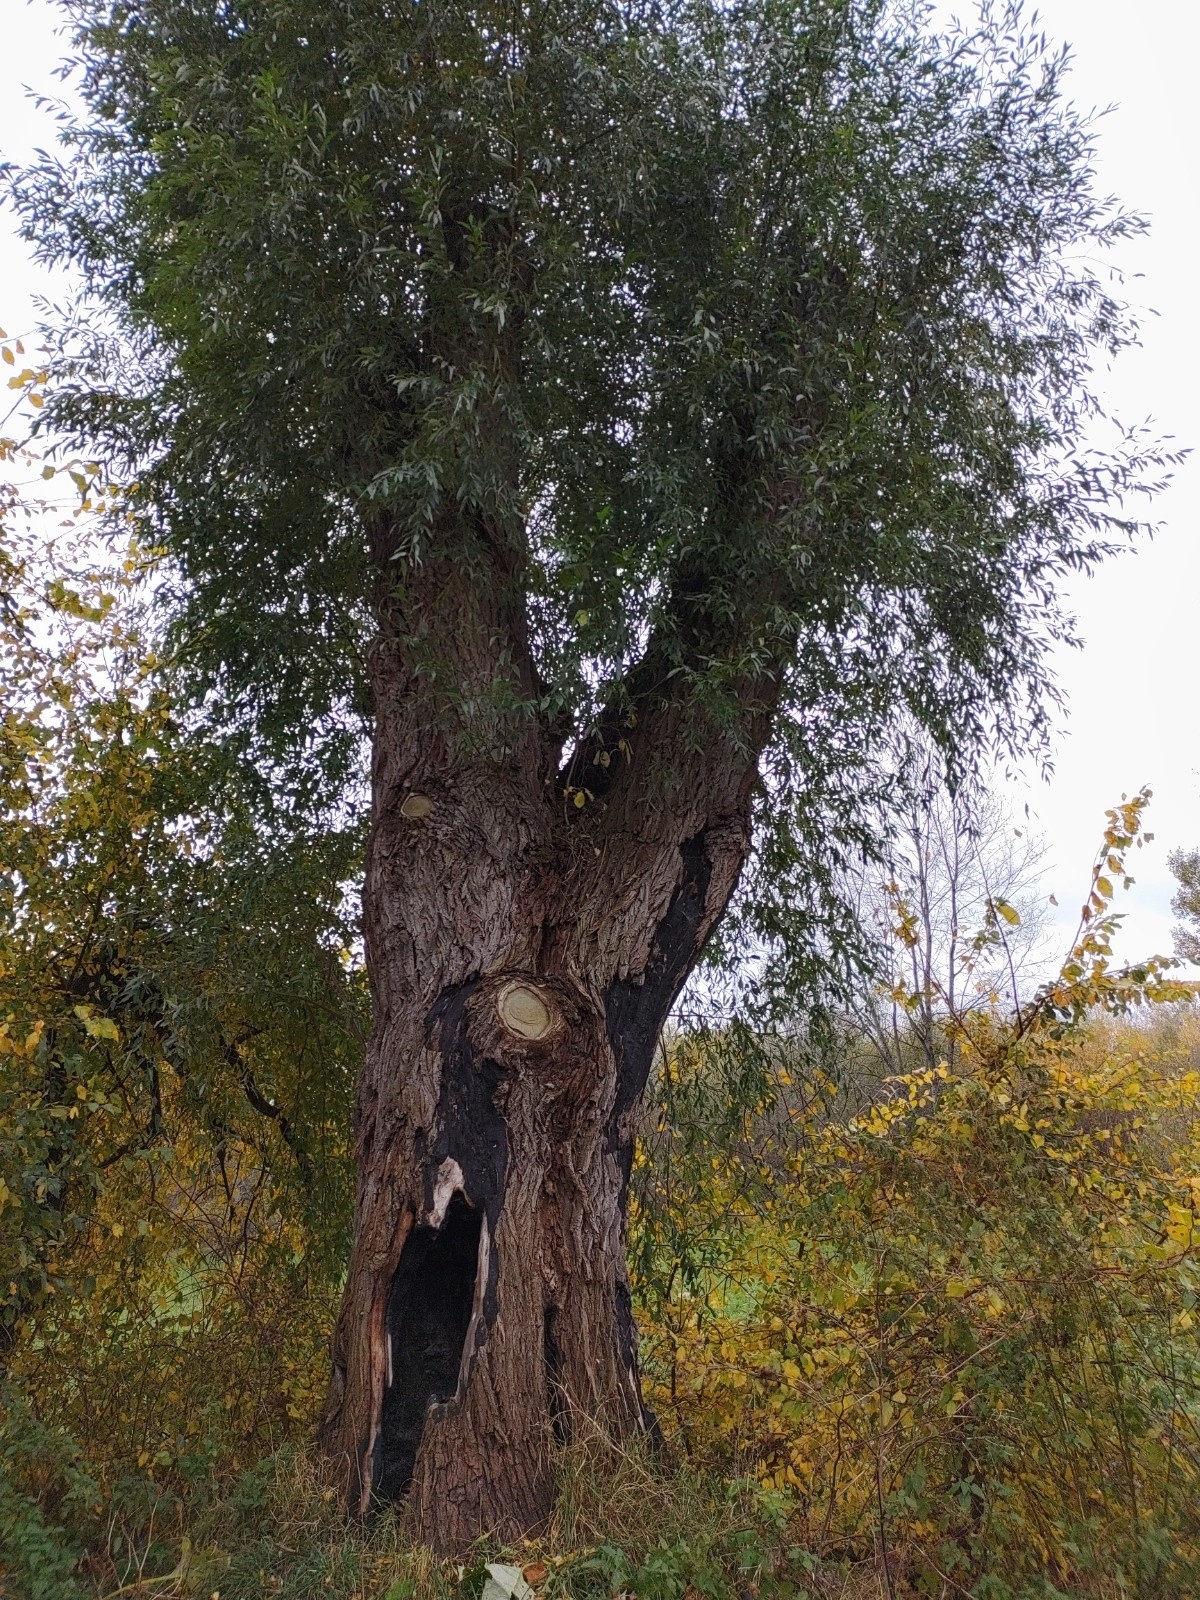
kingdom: Fungi
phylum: Basidiomycota
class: Agaricomycetes
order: Polyporales
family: Laetiporaceae
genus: Laetiporus
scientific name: Laetiporus sulphureus
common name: Chicken of the woods
